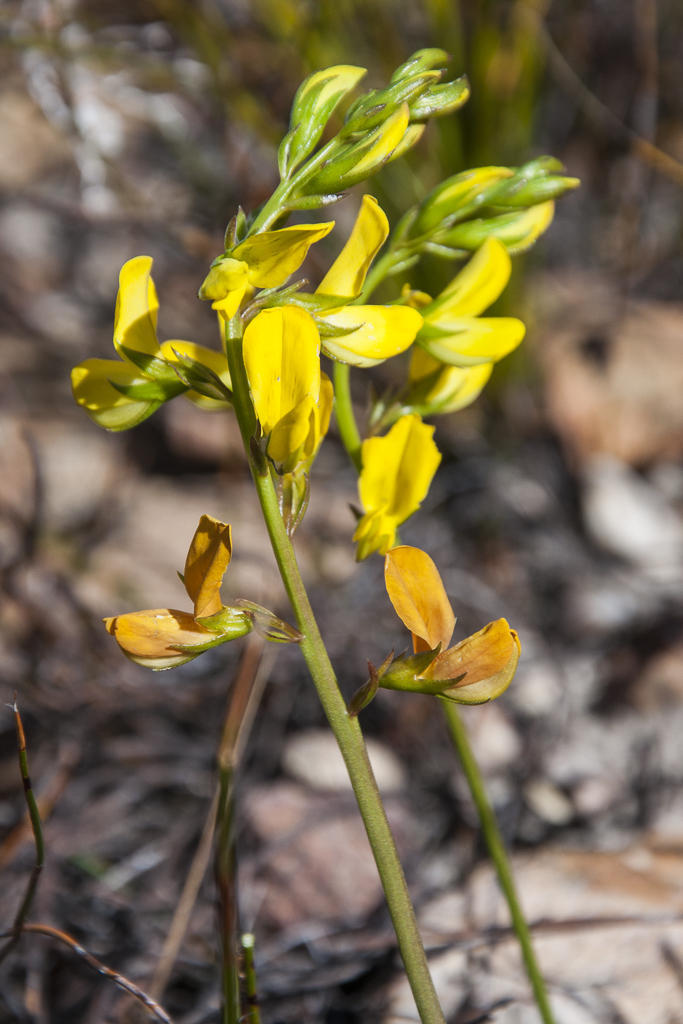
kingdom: Plantae
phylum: Tracheophyta
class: Magnoliopsida
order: Fabales
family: Fabaceae
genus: Lebeckia
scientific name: Lebeckia grandiflora
